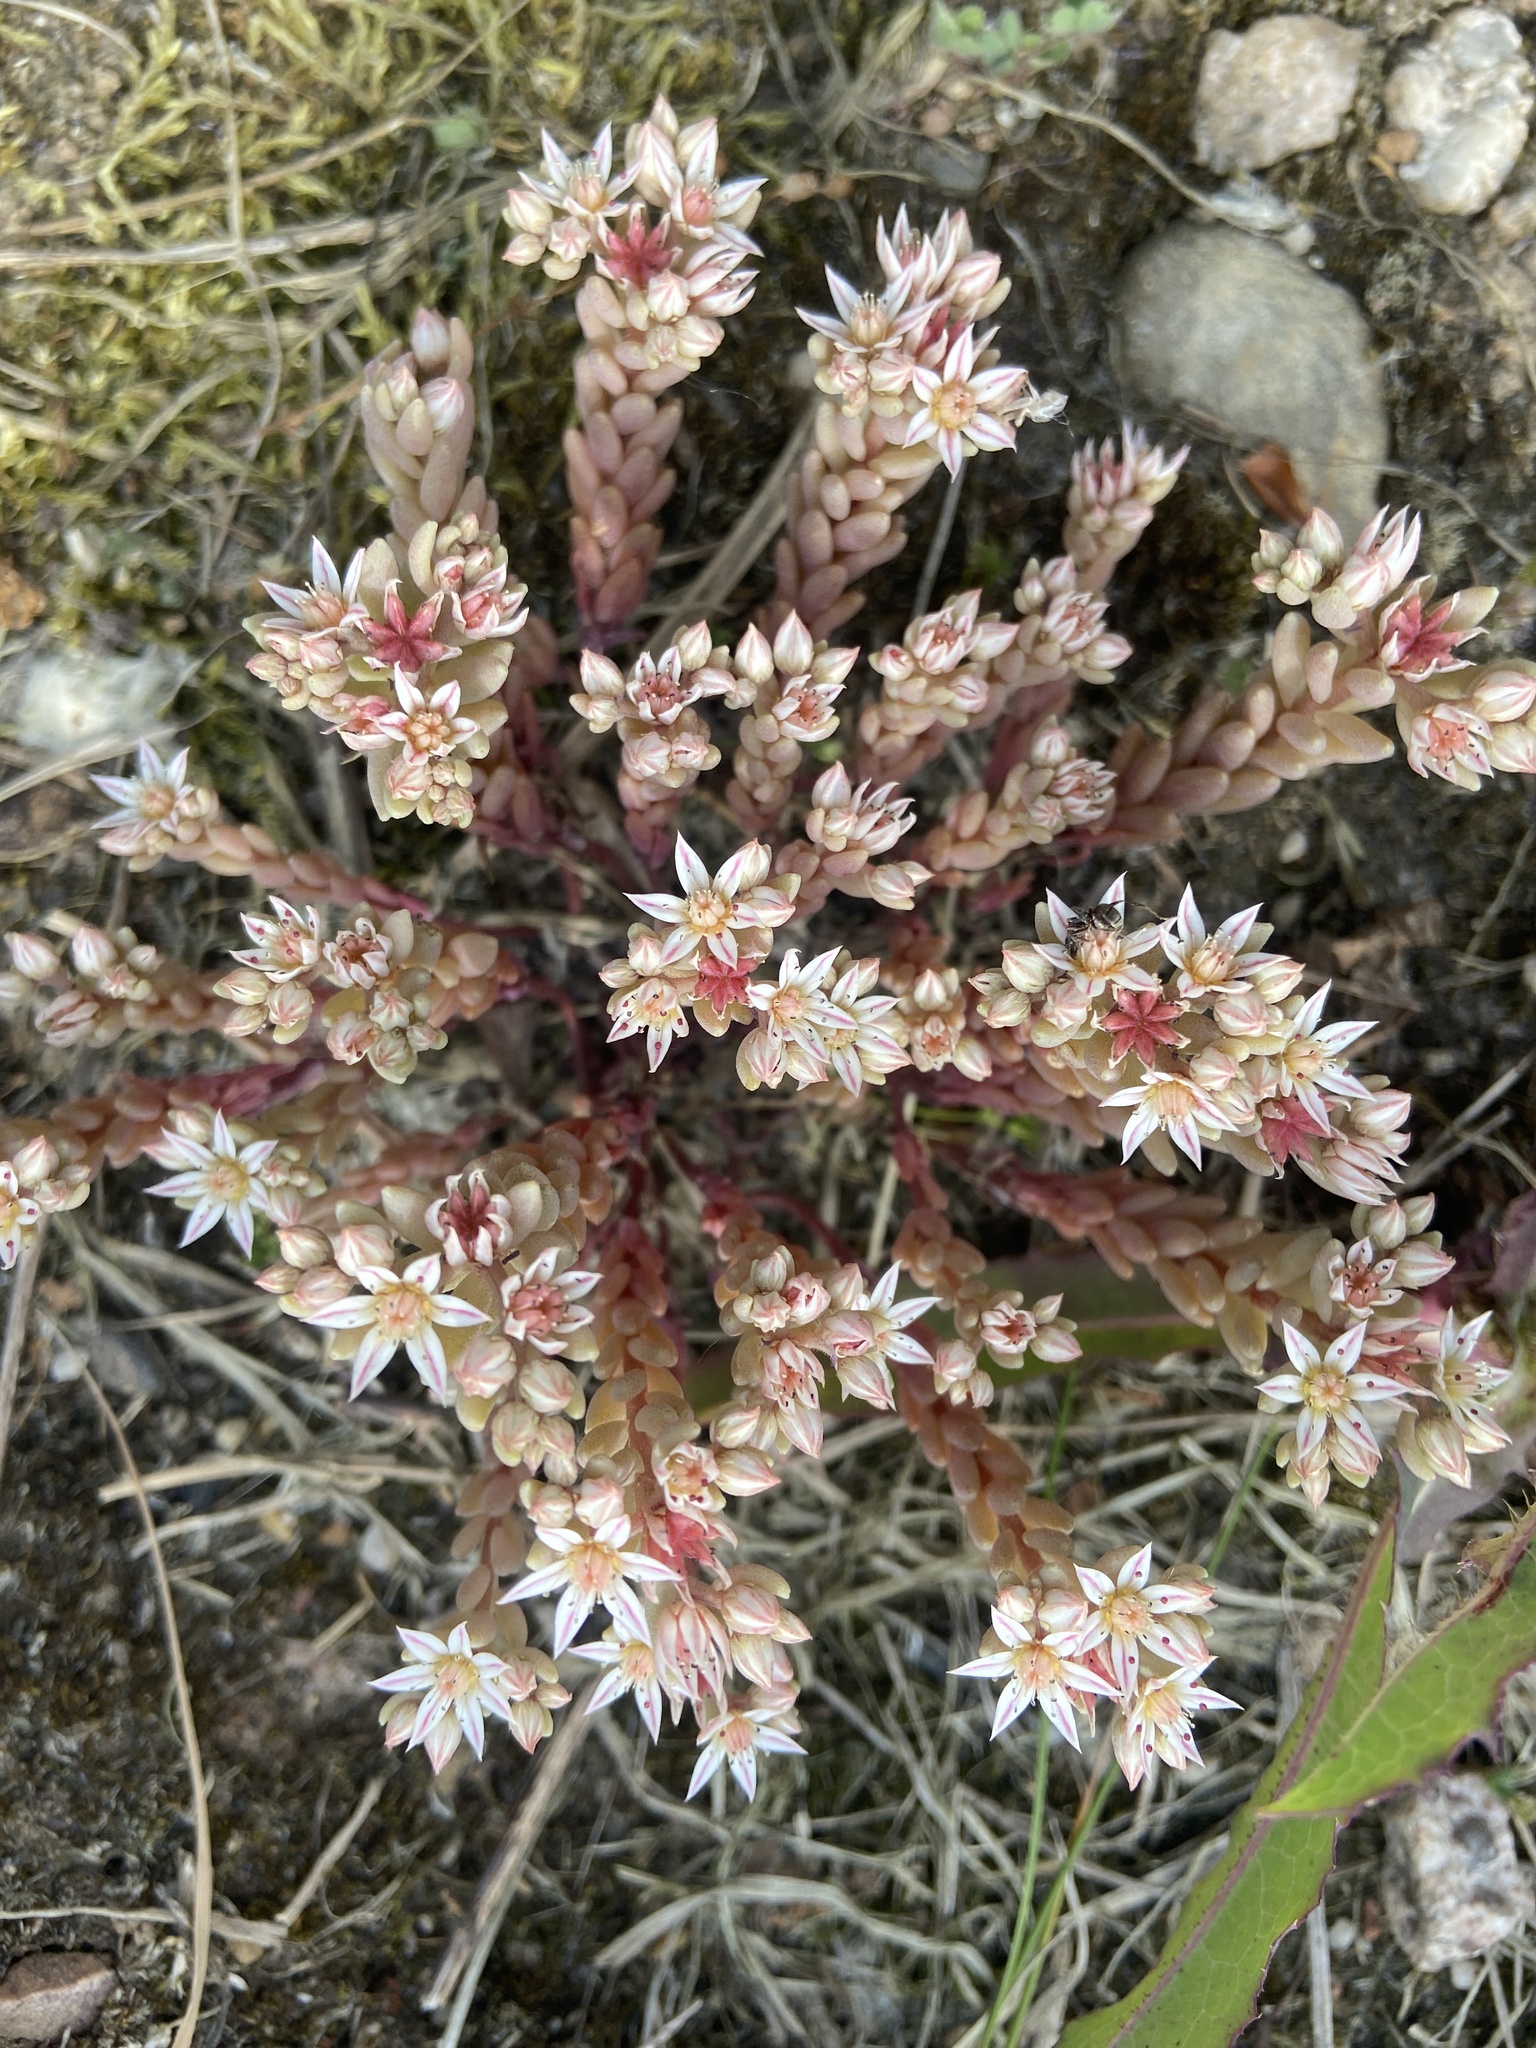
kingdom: Plantae
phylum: Tracheophyta
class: Magnoliopsida
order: Saxifragales
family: Crassulaceae
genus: Sedum
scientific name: Sedum hispanicum
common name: Spanish stonecrop
